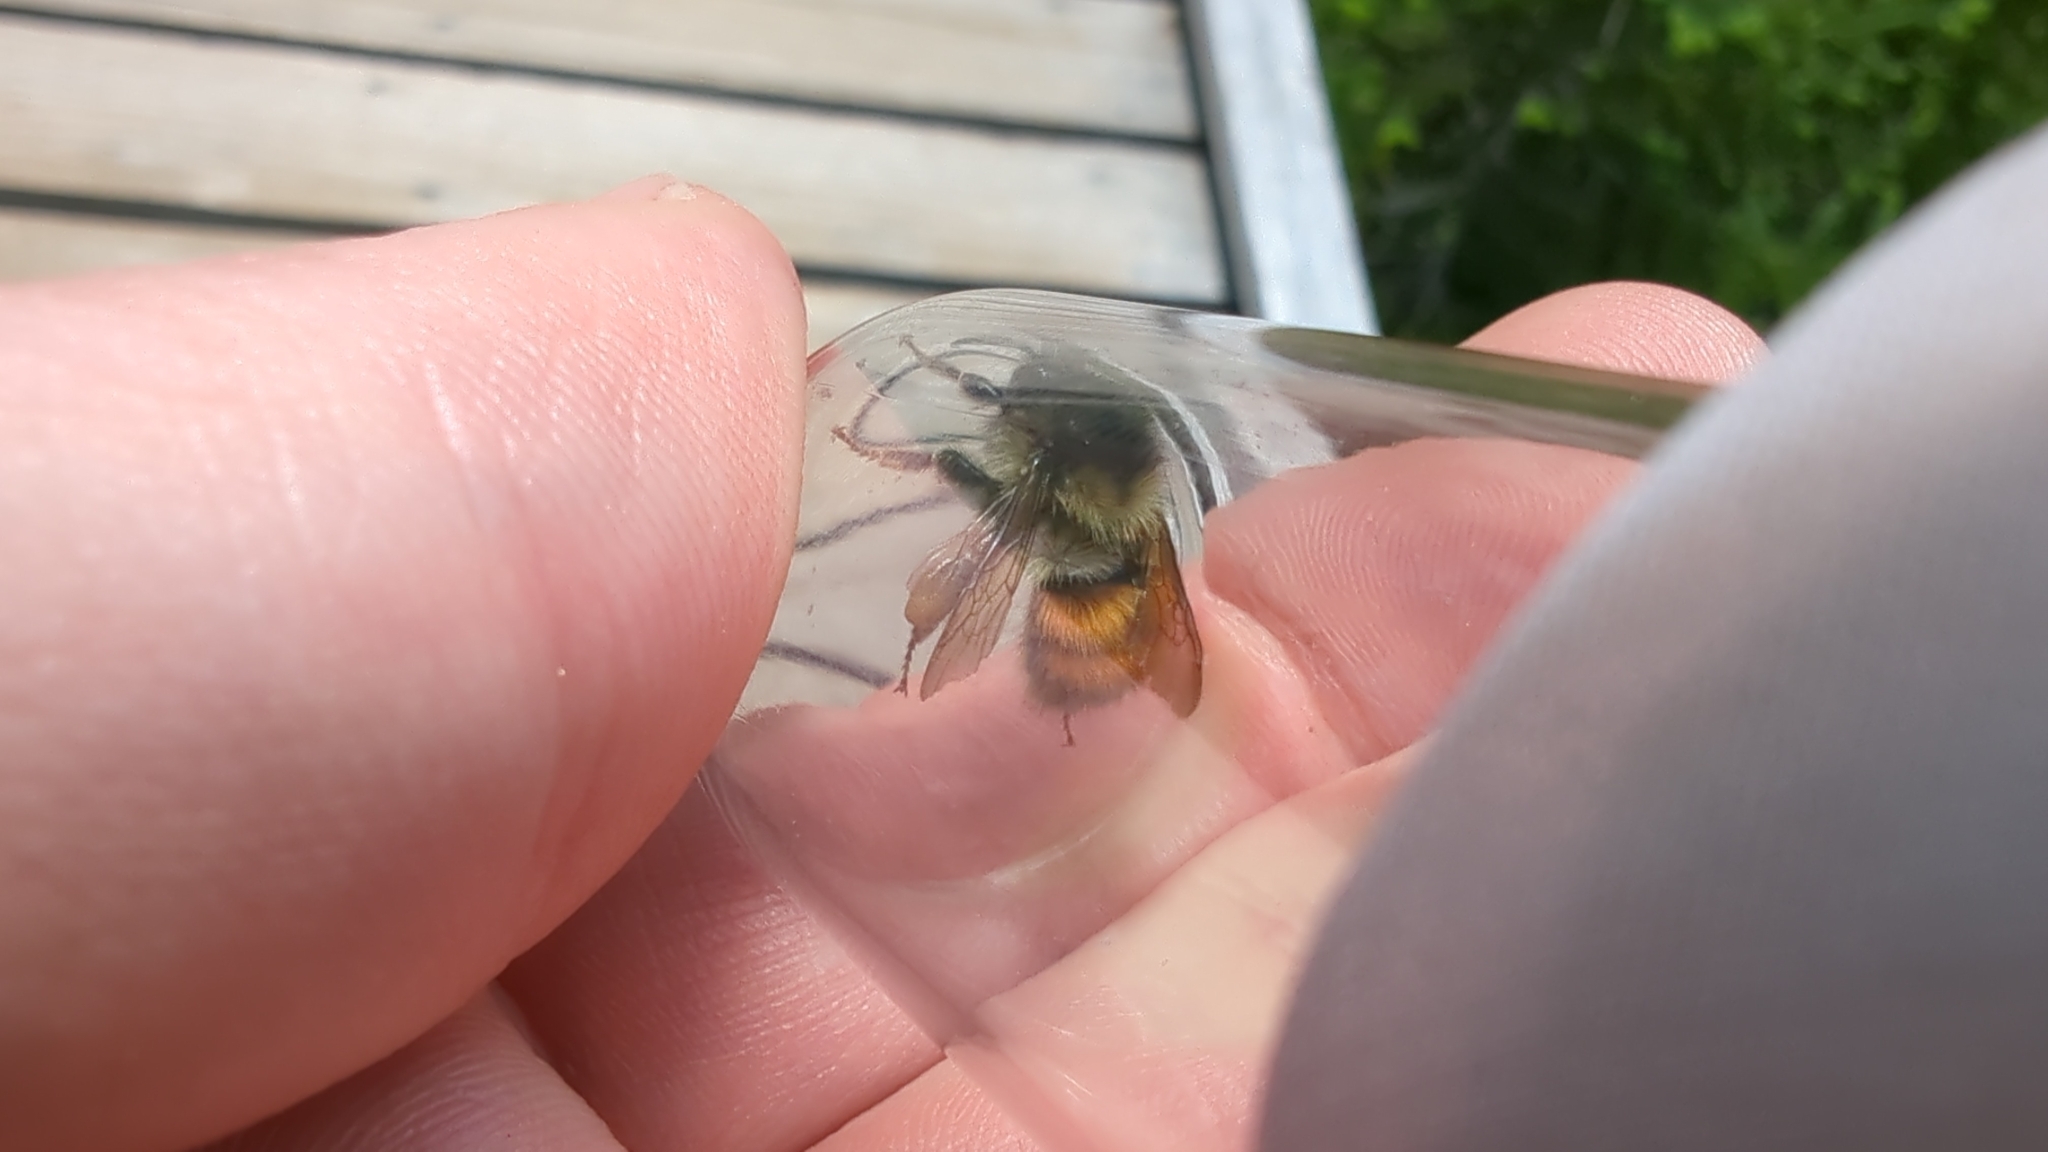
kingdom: Animalia
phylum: Arthropoda
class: Insecta
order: Hymenoptera
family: Apidae
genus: Bombus
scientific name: Bombus melanopygus
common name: Black tail bumble bee
